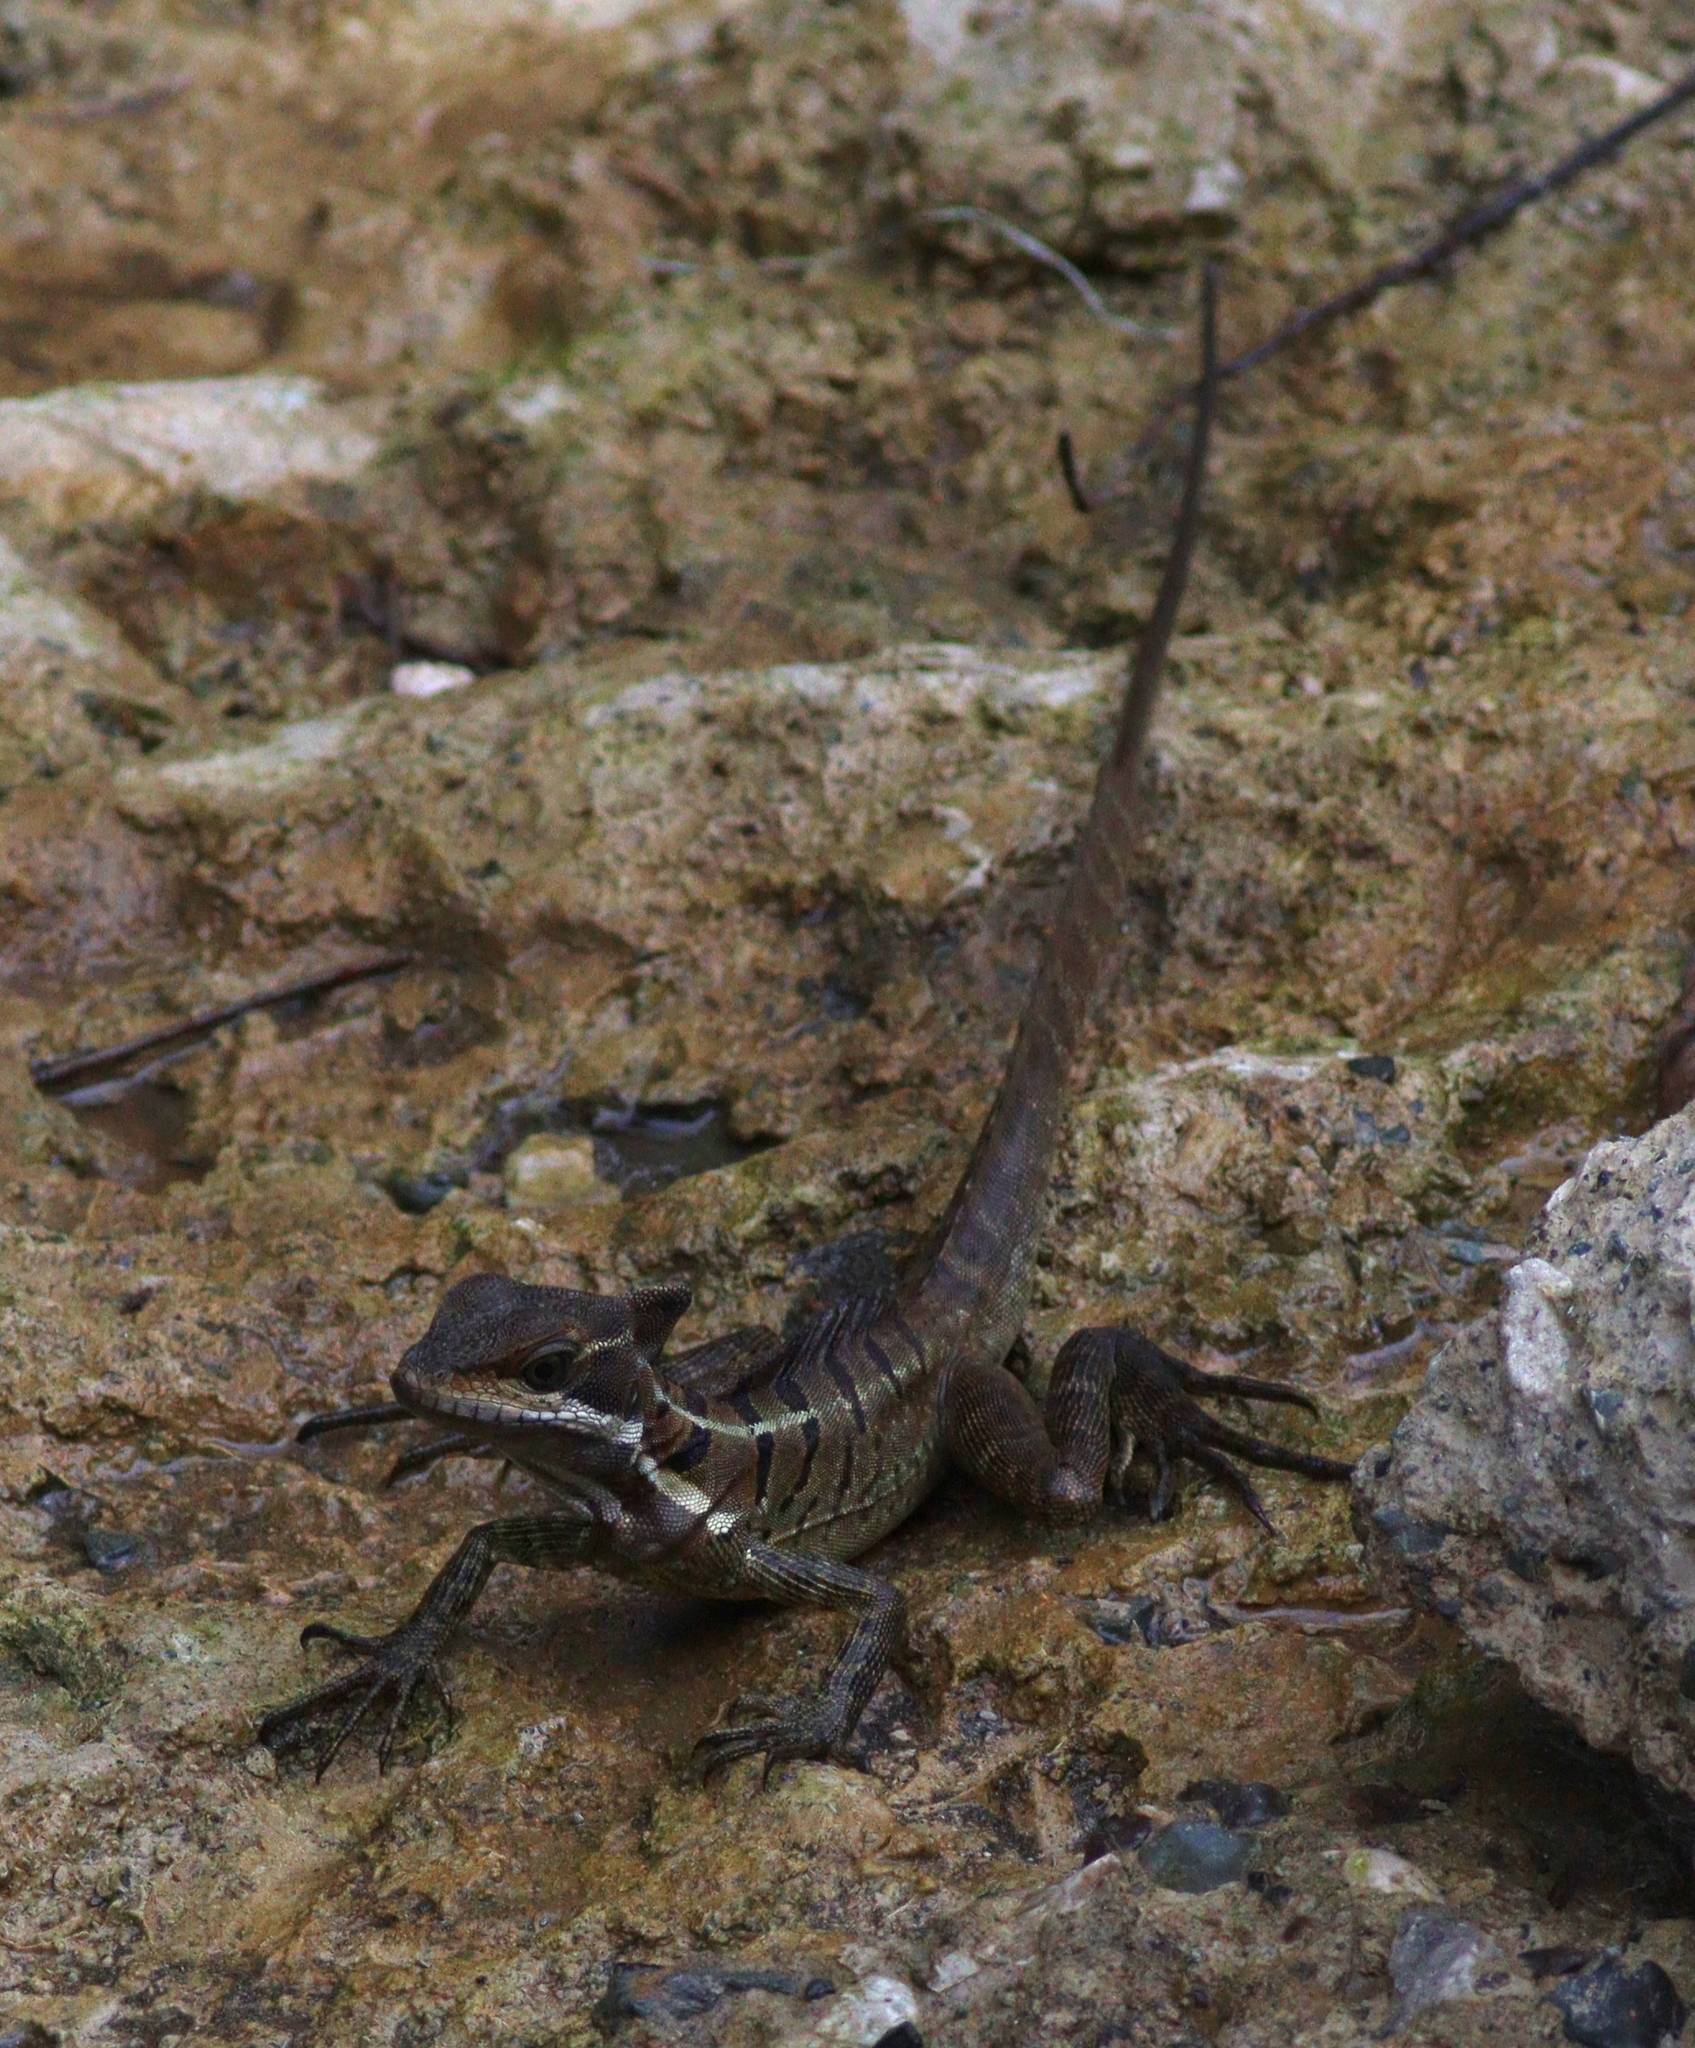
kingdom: Animalia
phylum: Chordata
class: Squamata
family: Corytophanidae
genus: Basiliscus
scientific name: Basiliscus basiliscus
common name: Common basilisk
